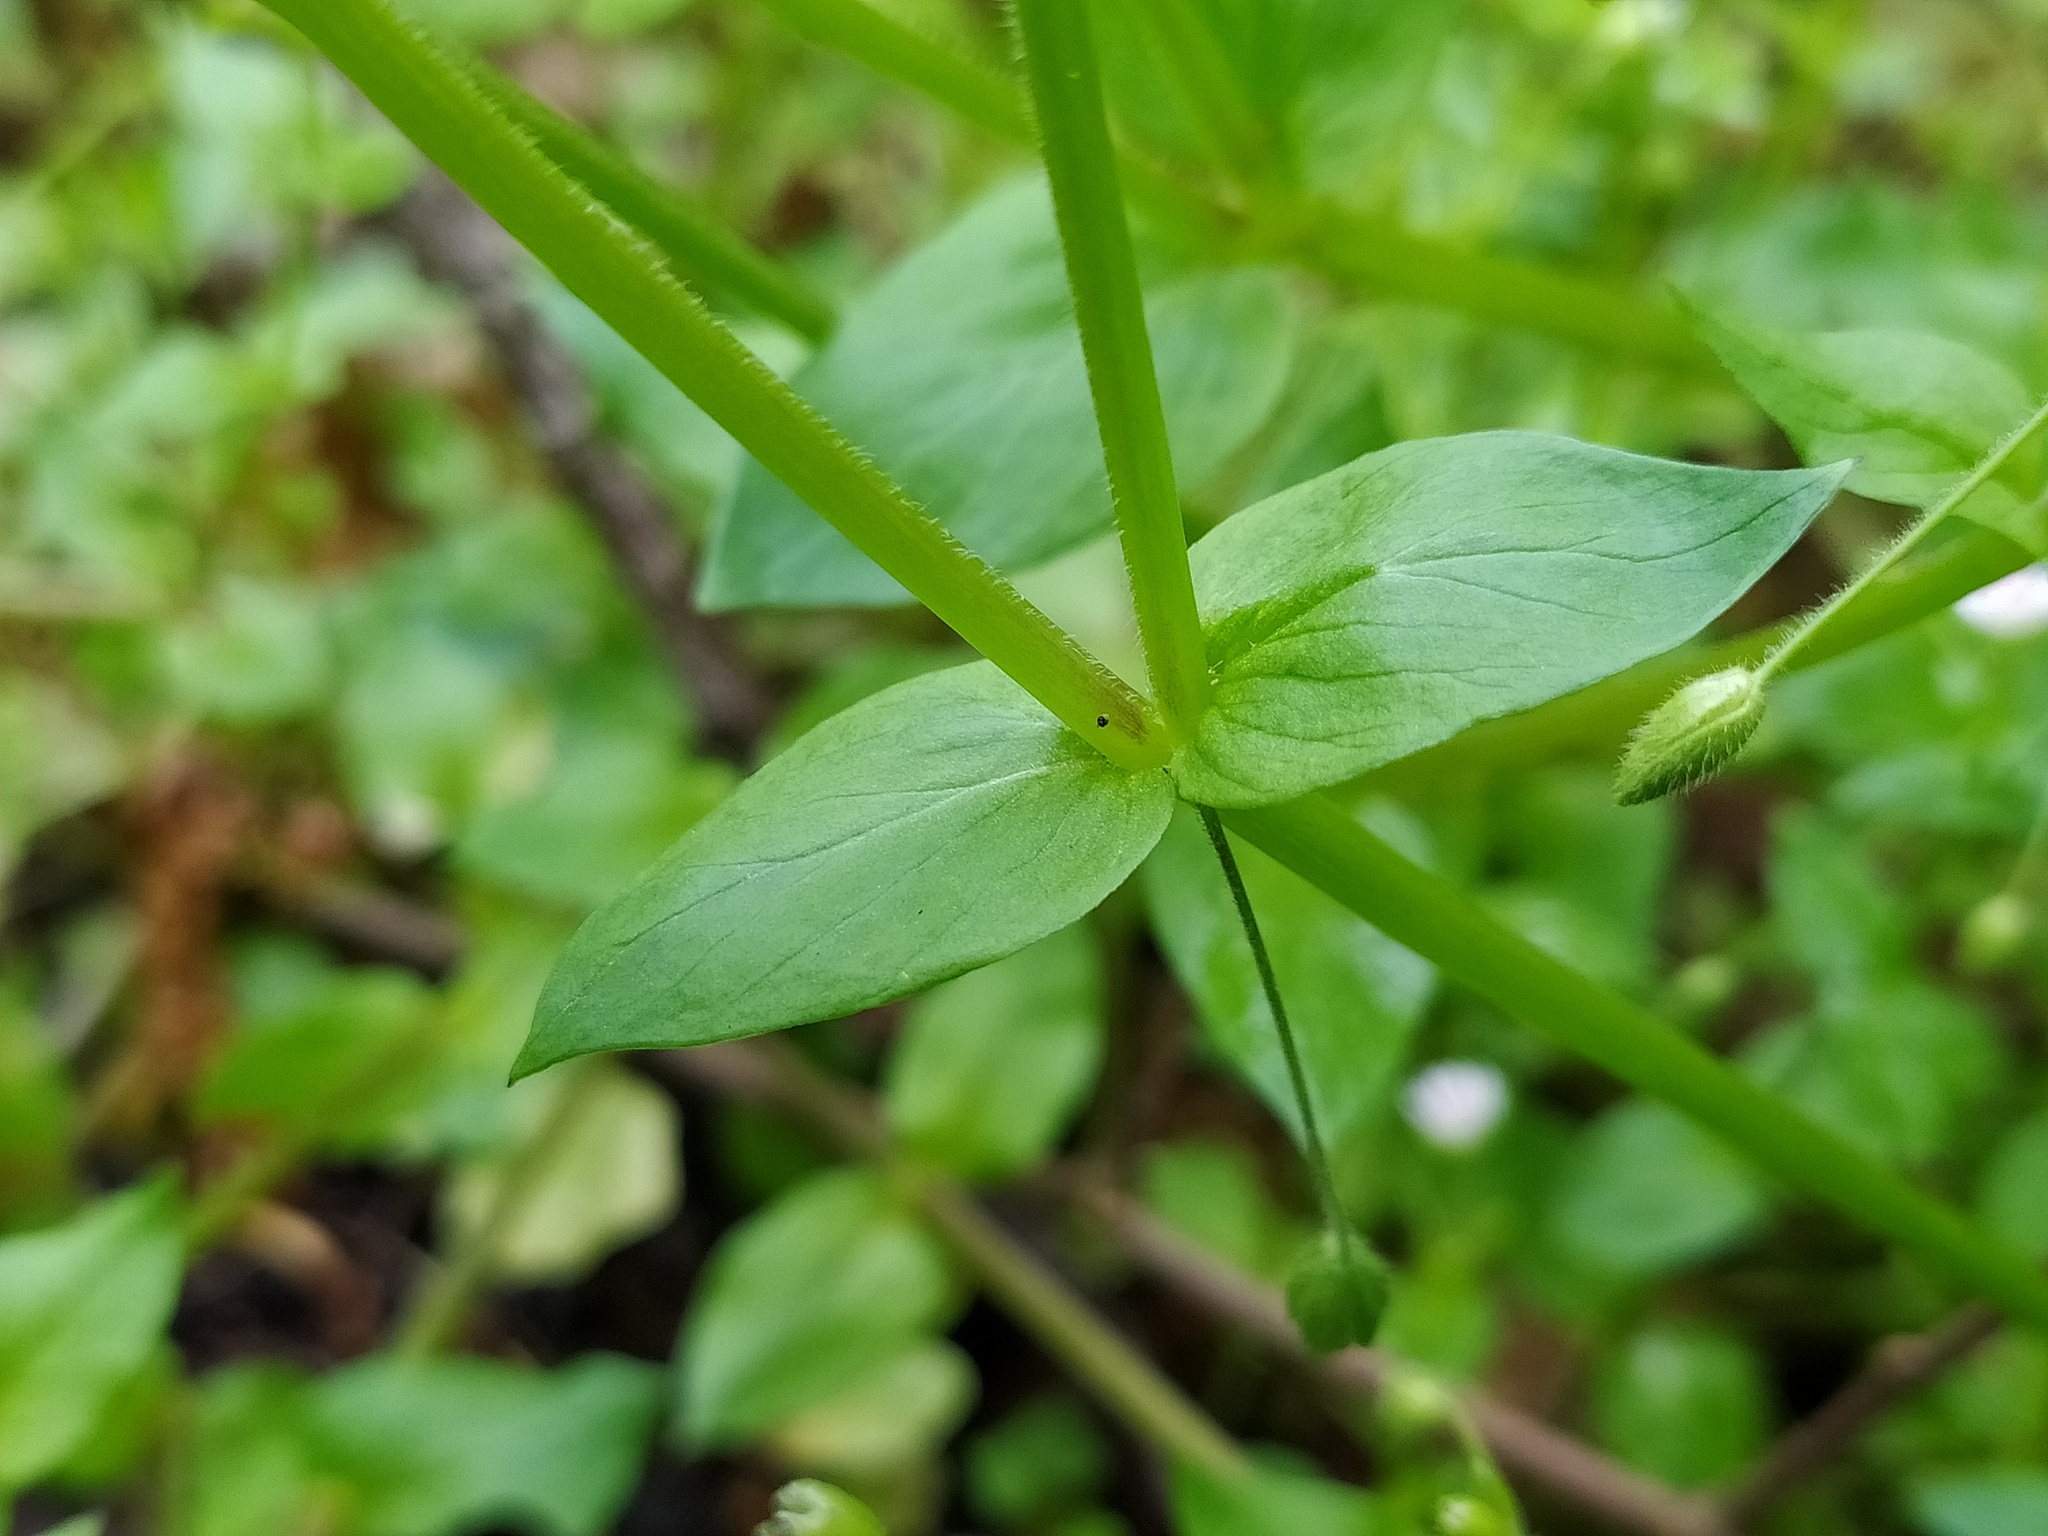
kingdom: Plantae
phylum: Tracheophyta
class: Magnoliopsida
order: Caryophyllales
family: Caryophyllaceae
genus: Stellaria
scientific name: Stellaria neglecta
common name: Greater chickweed
